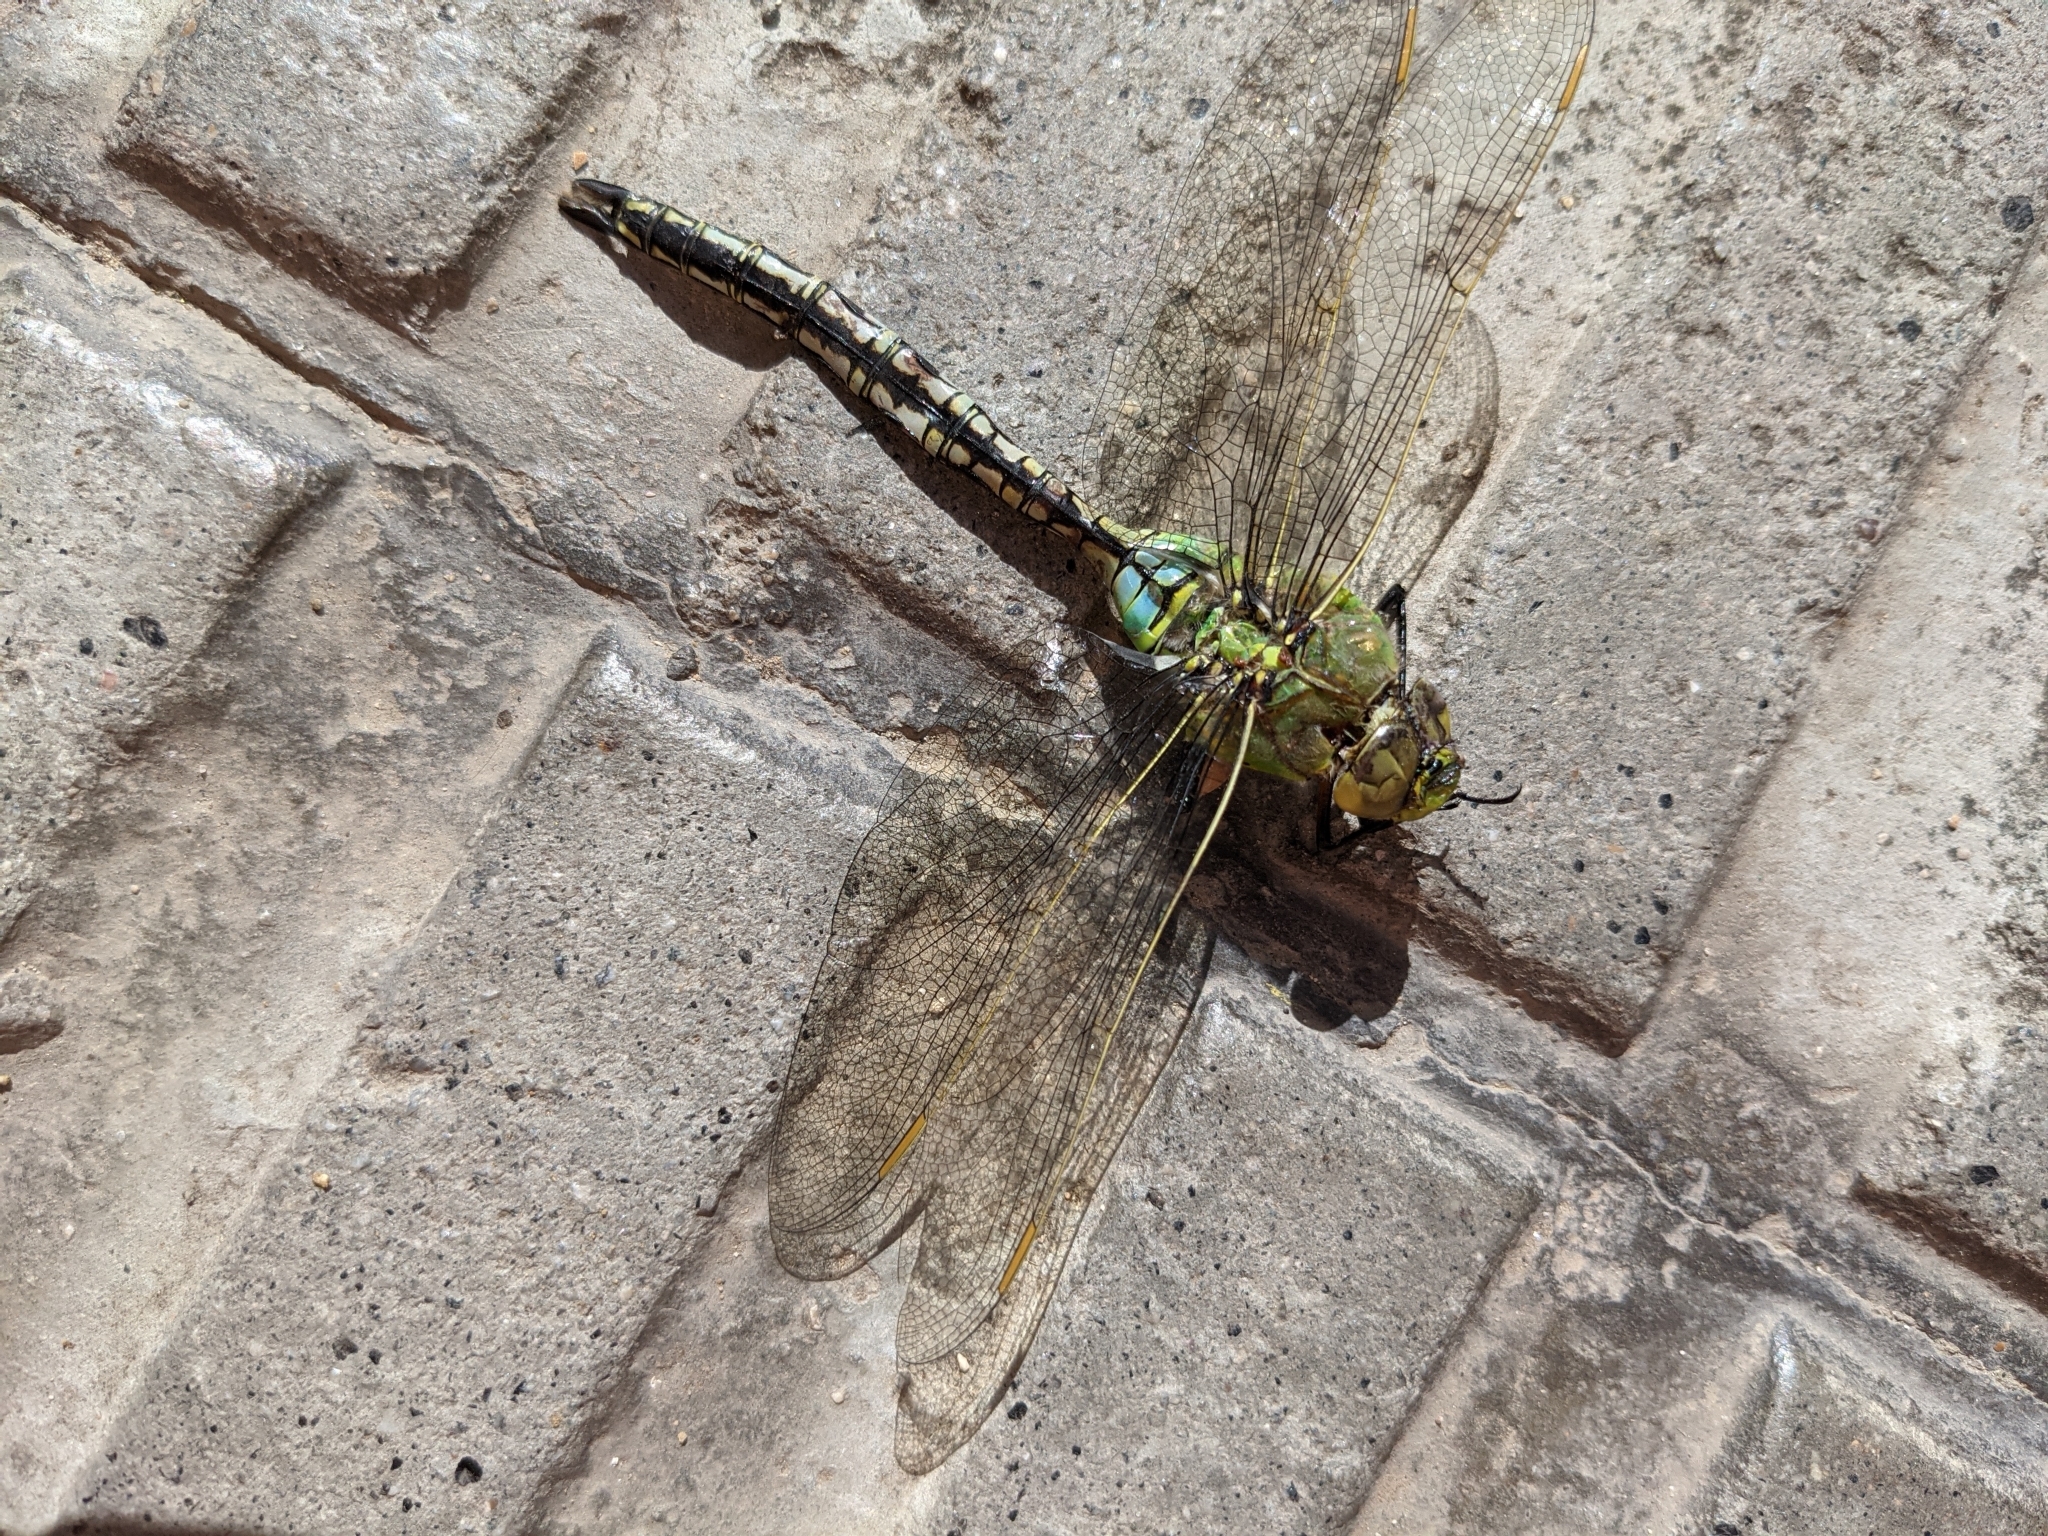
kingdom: Animalia
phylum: Arthropoda
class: Insecta
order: Odonata
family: Aeshnidae
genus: Anax
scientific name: Anax imperator
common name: Emperor dragonfly
